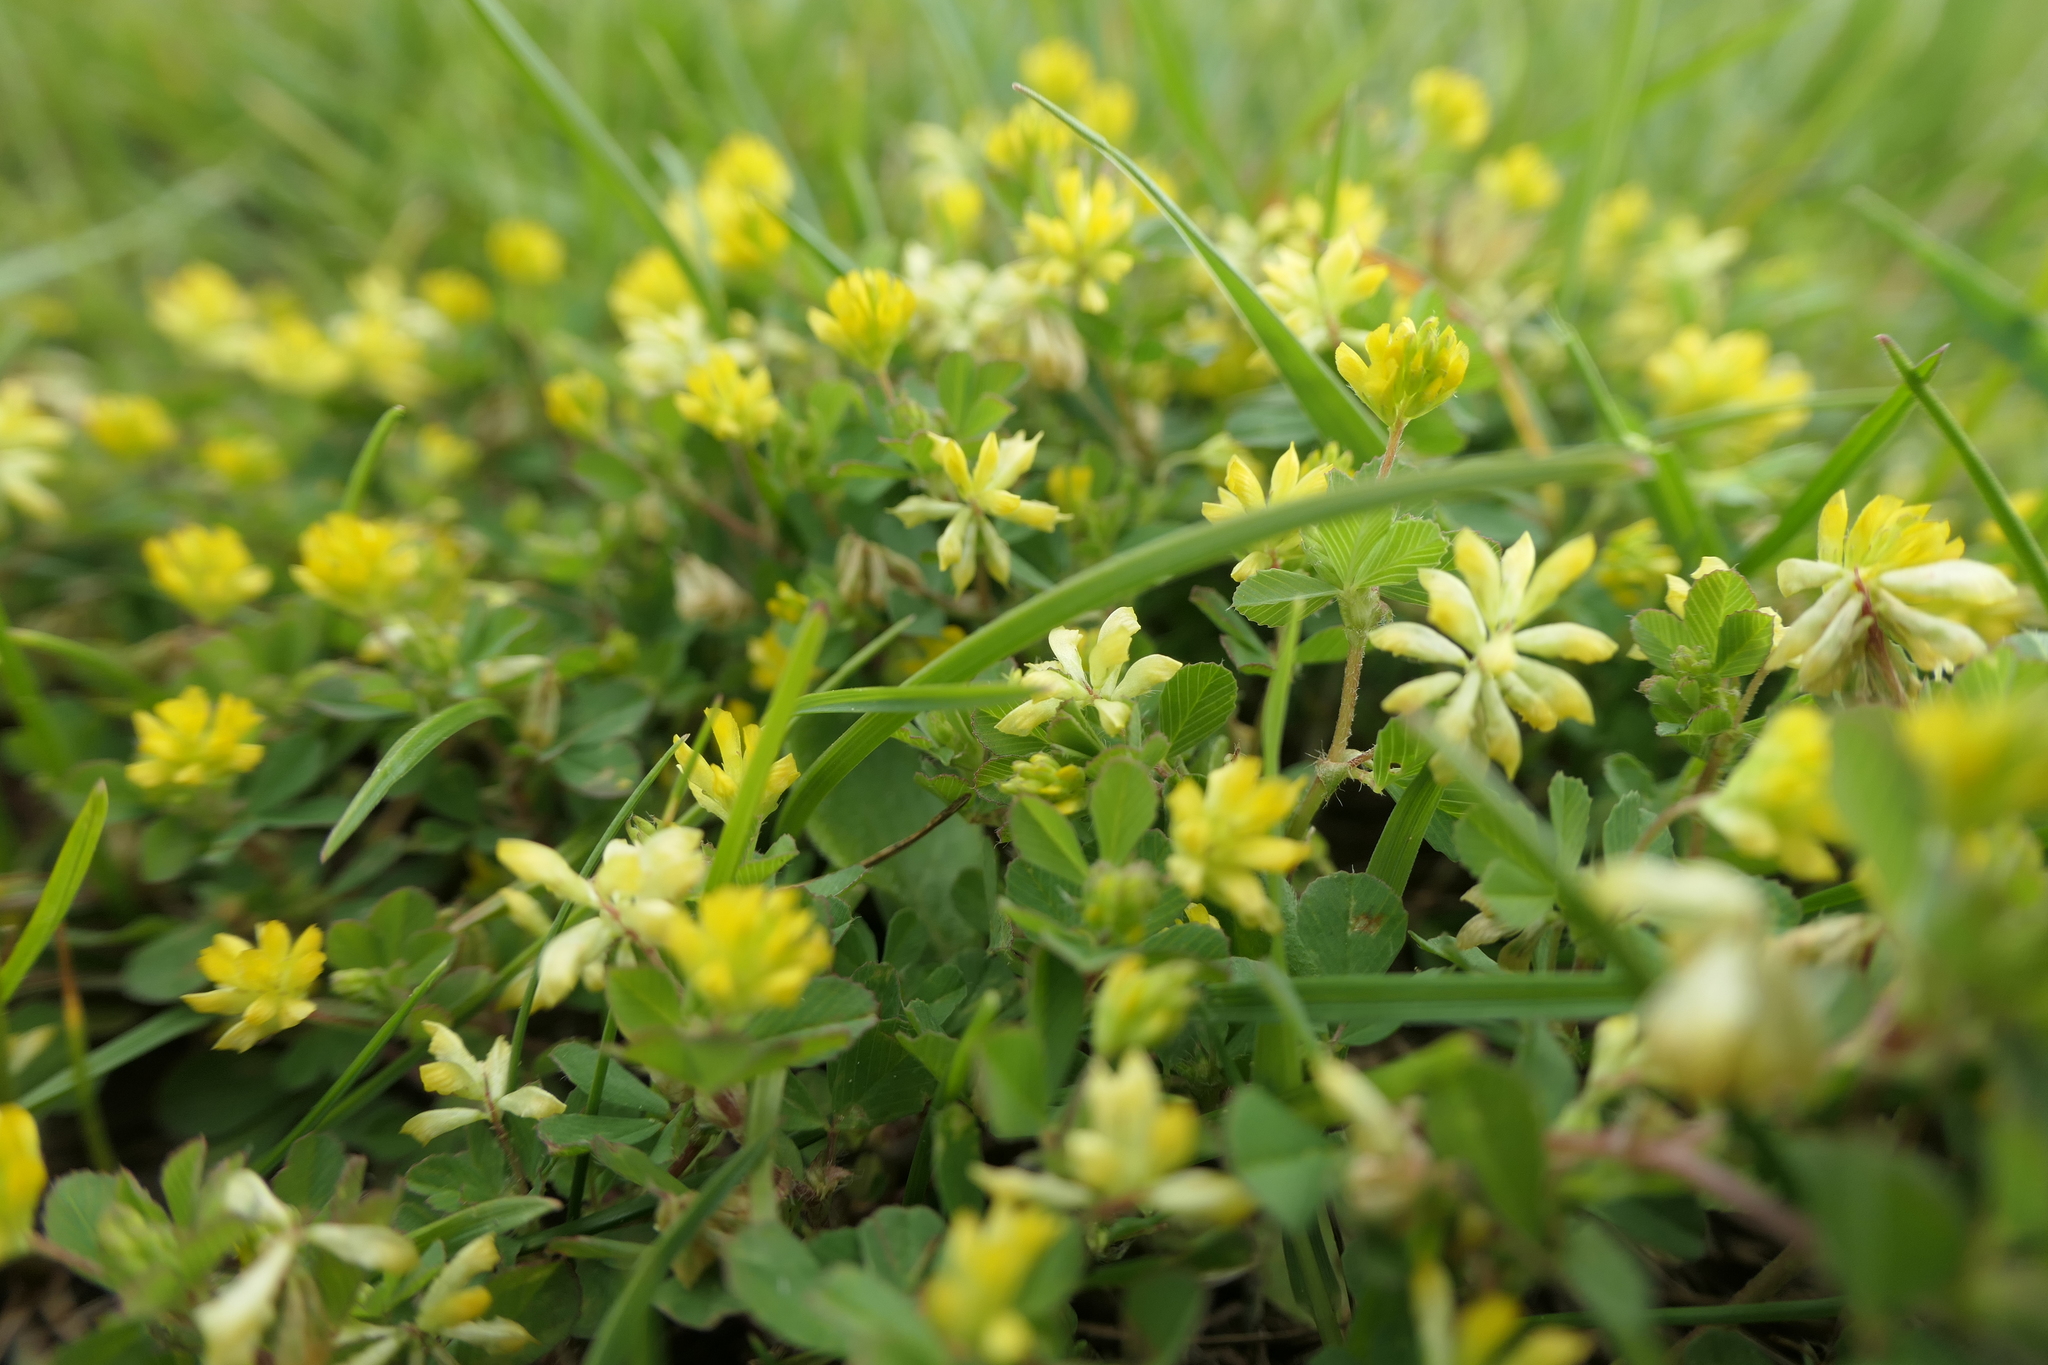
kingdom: Plantae
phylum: Tracheophyta
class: Magnoliopsida
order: Fabales
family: Fabaceae
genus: Trifolium
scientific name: Trifolium dubium
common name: Suckling clover
